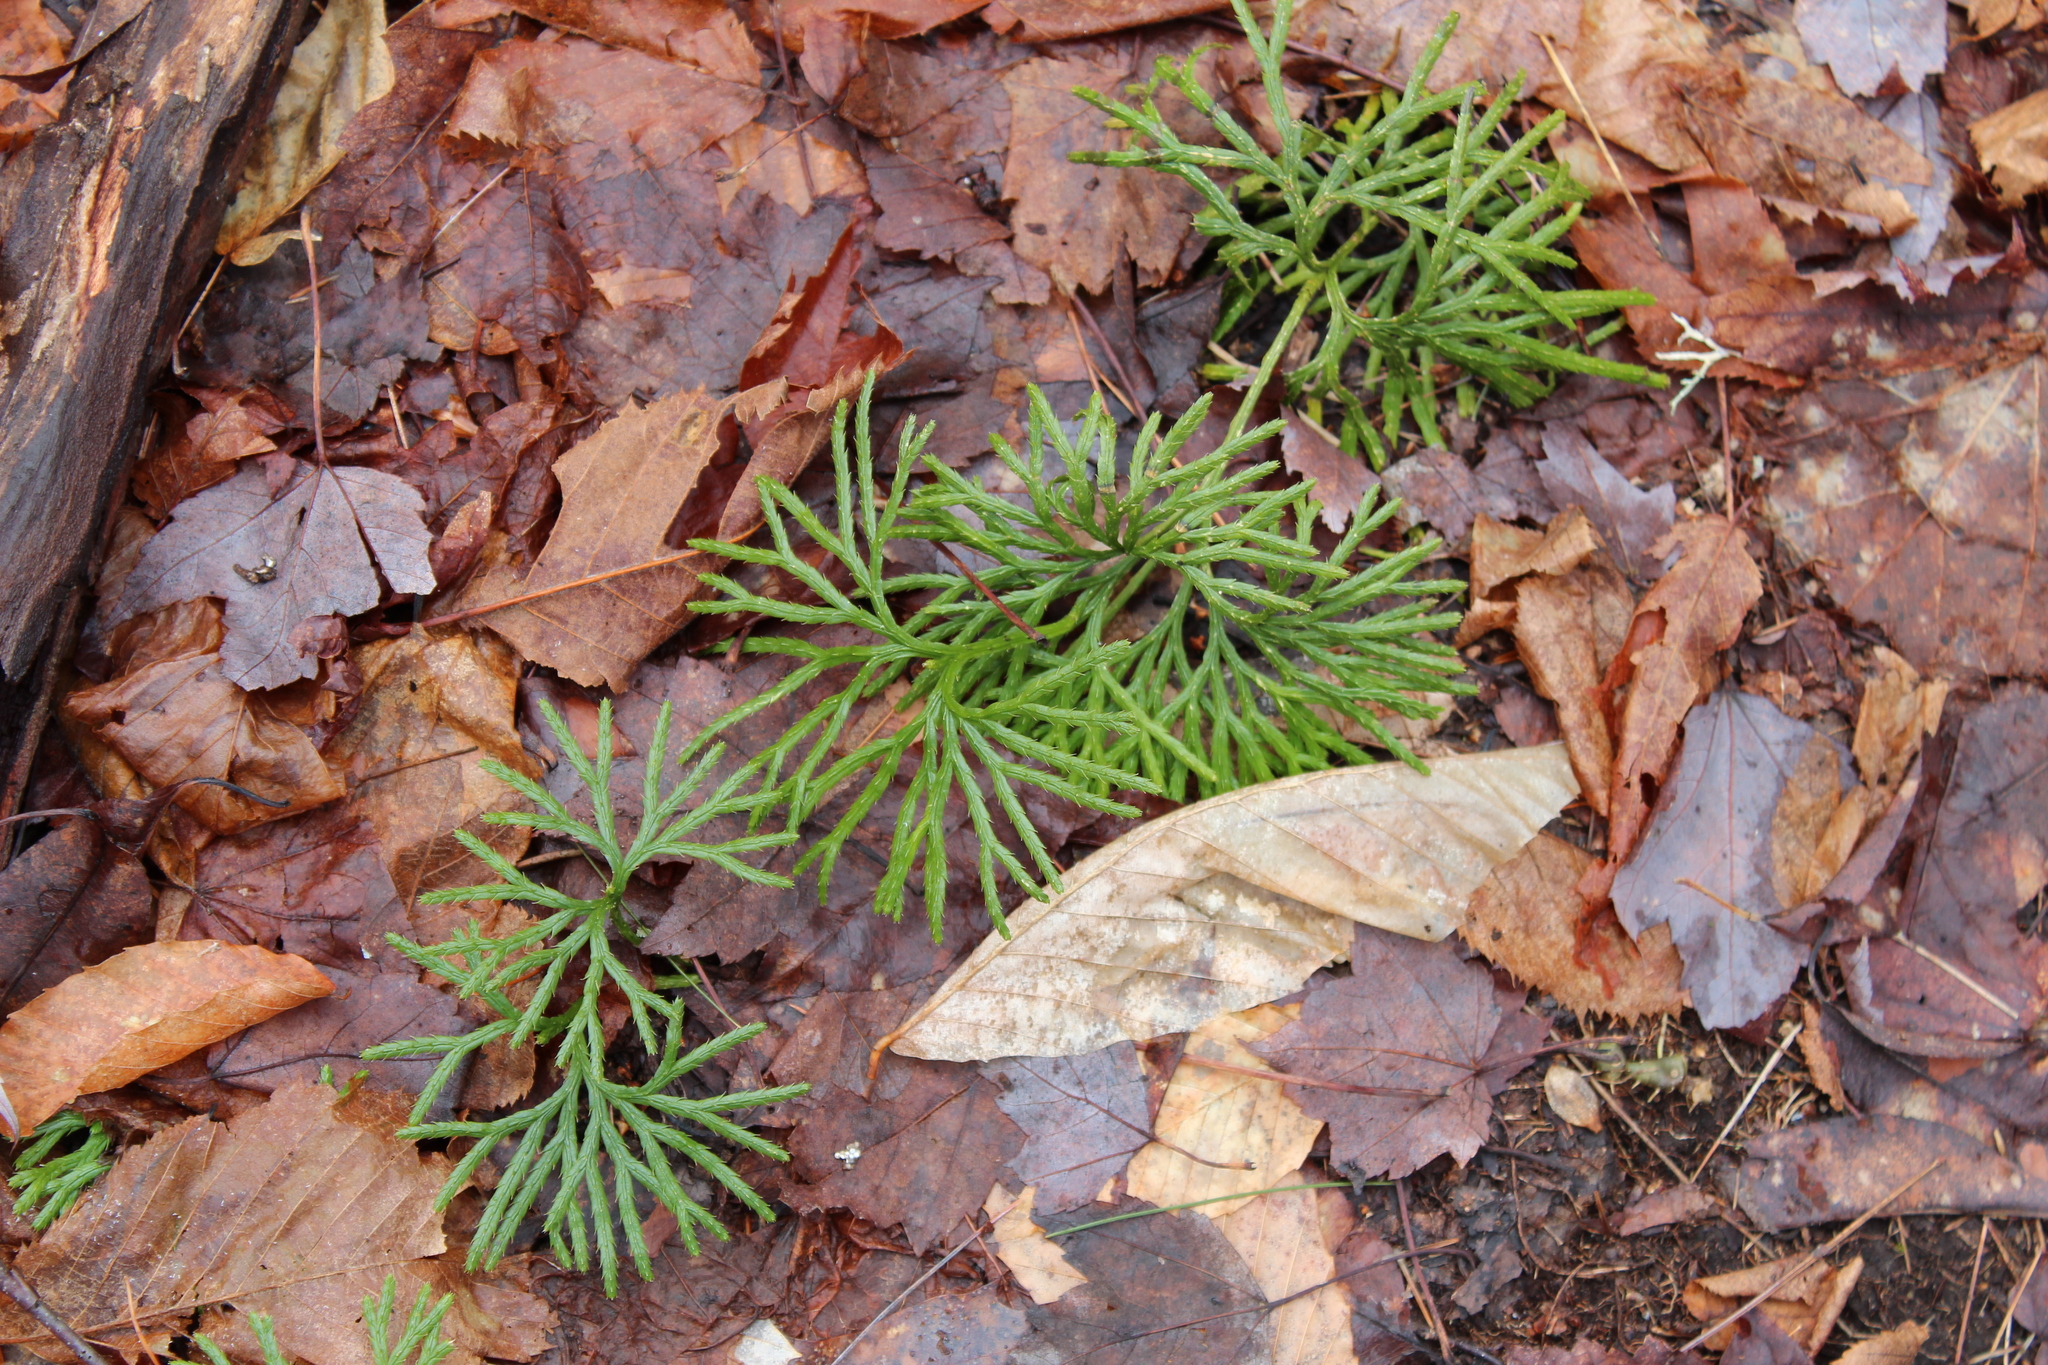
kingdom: Plantae
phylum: Tracheophyta
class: Lycopodiopsida
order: Lycopodiales
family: Lycopodiaceae
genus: Diphasiastrum
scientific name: Diphasiastrum digitatum
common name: Southern running-pine
